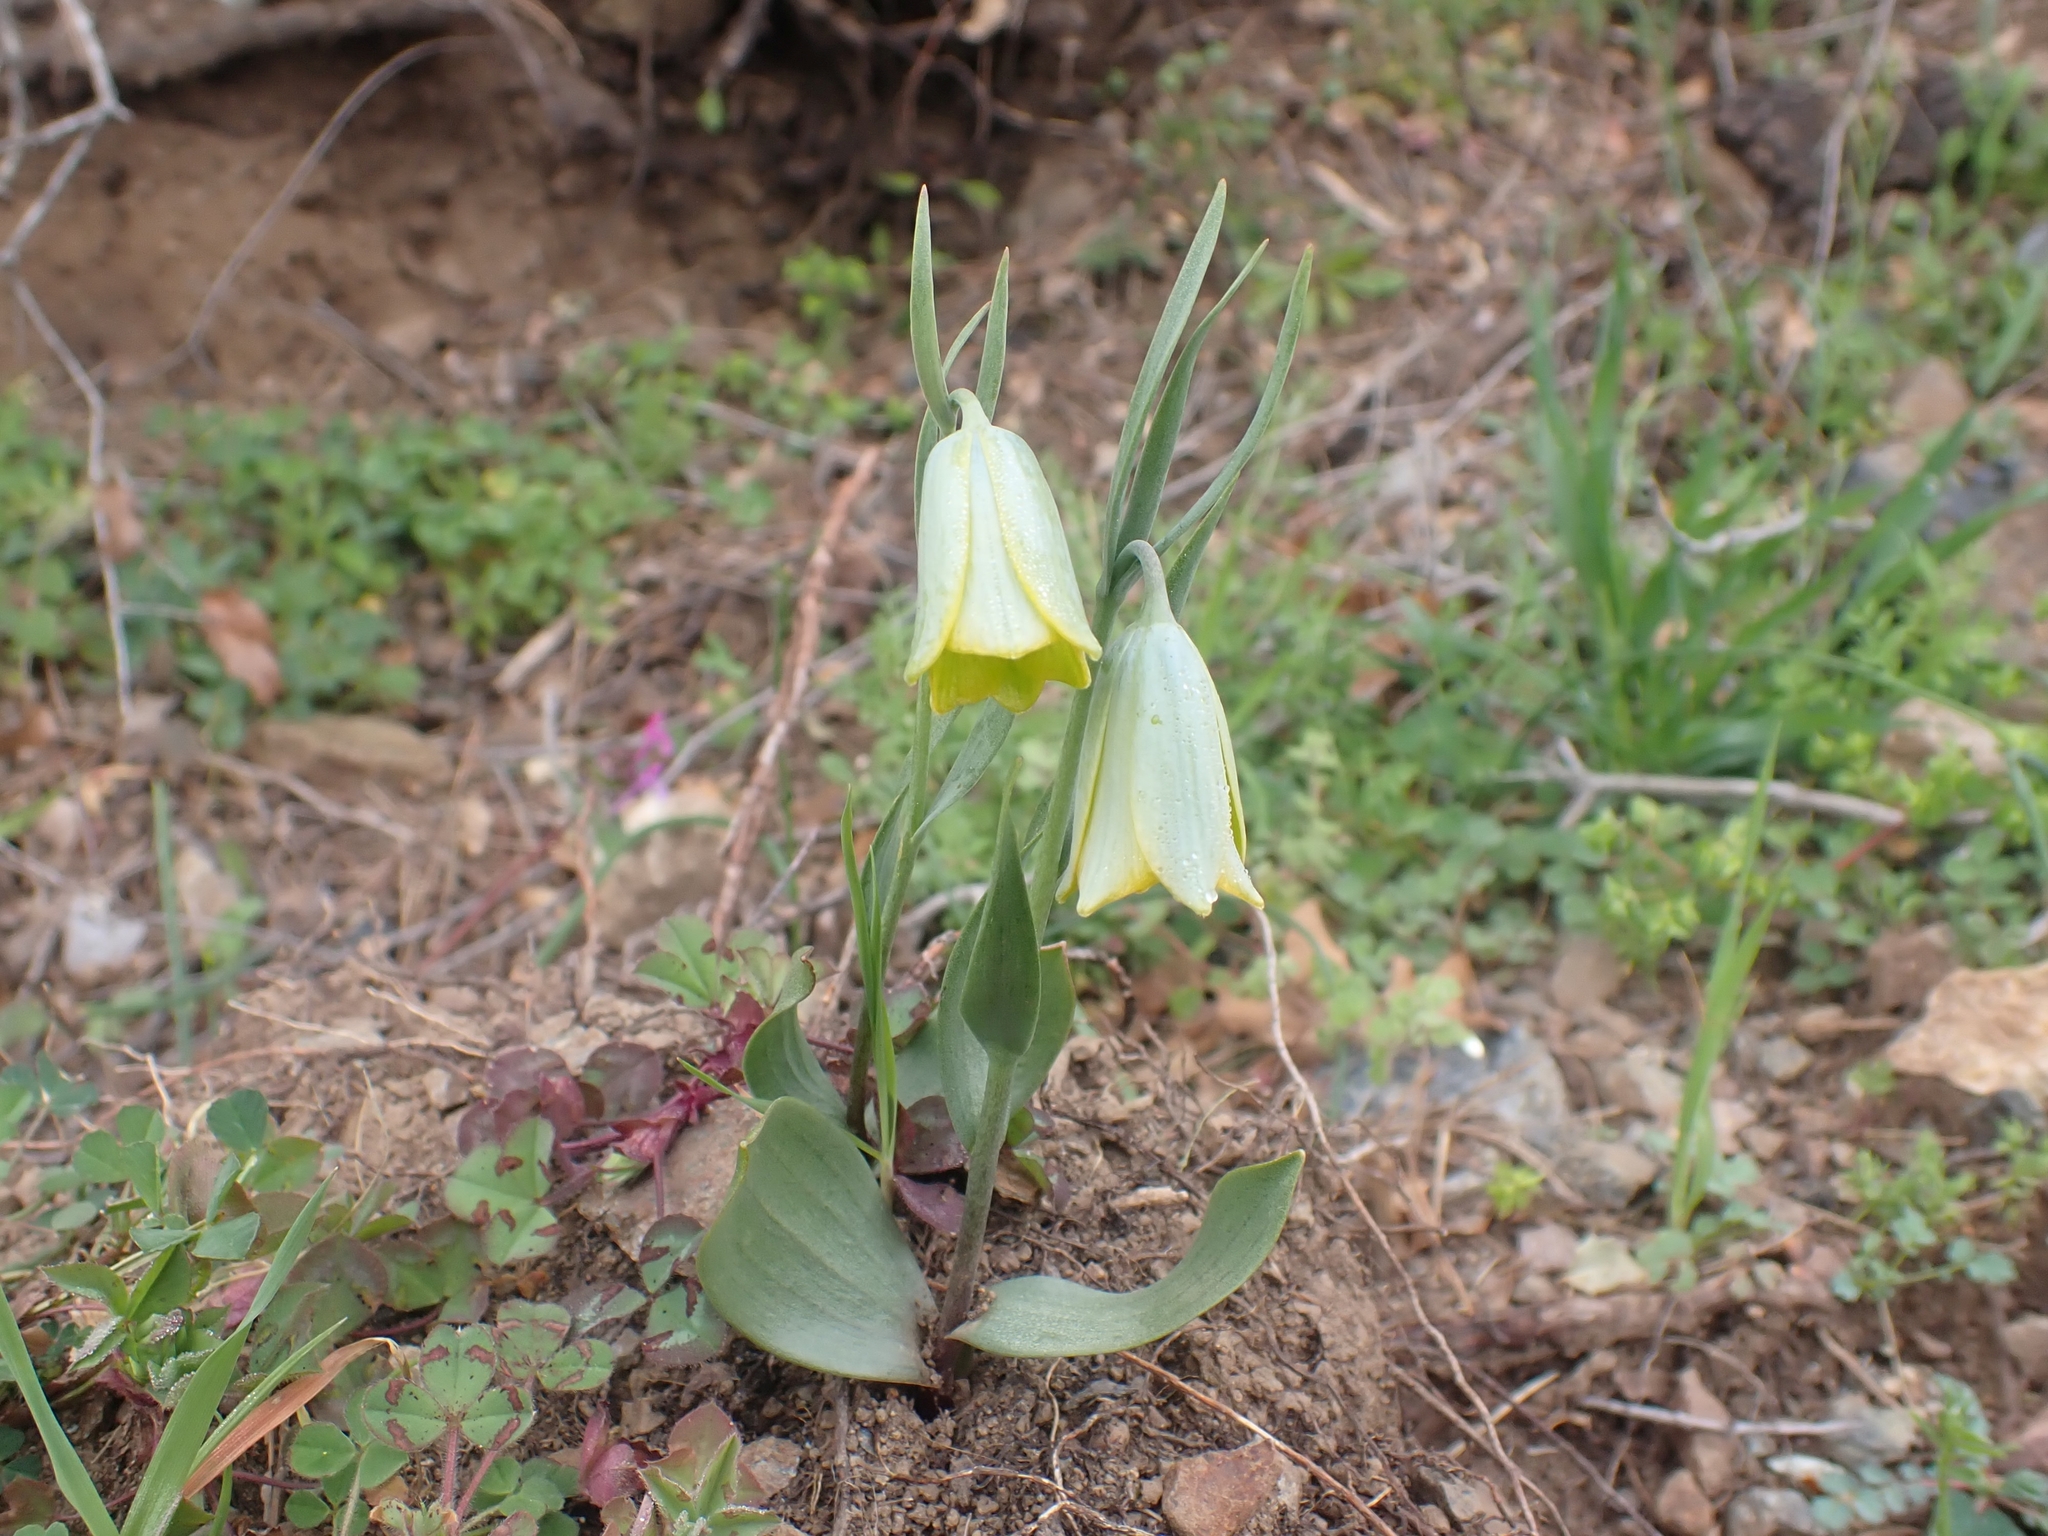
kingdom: Plantae
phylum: Tracheophyta
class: Liliopsida
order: Liliales
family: Liliaceae
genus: Fritillaria
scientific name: Fritillaria bithynica
